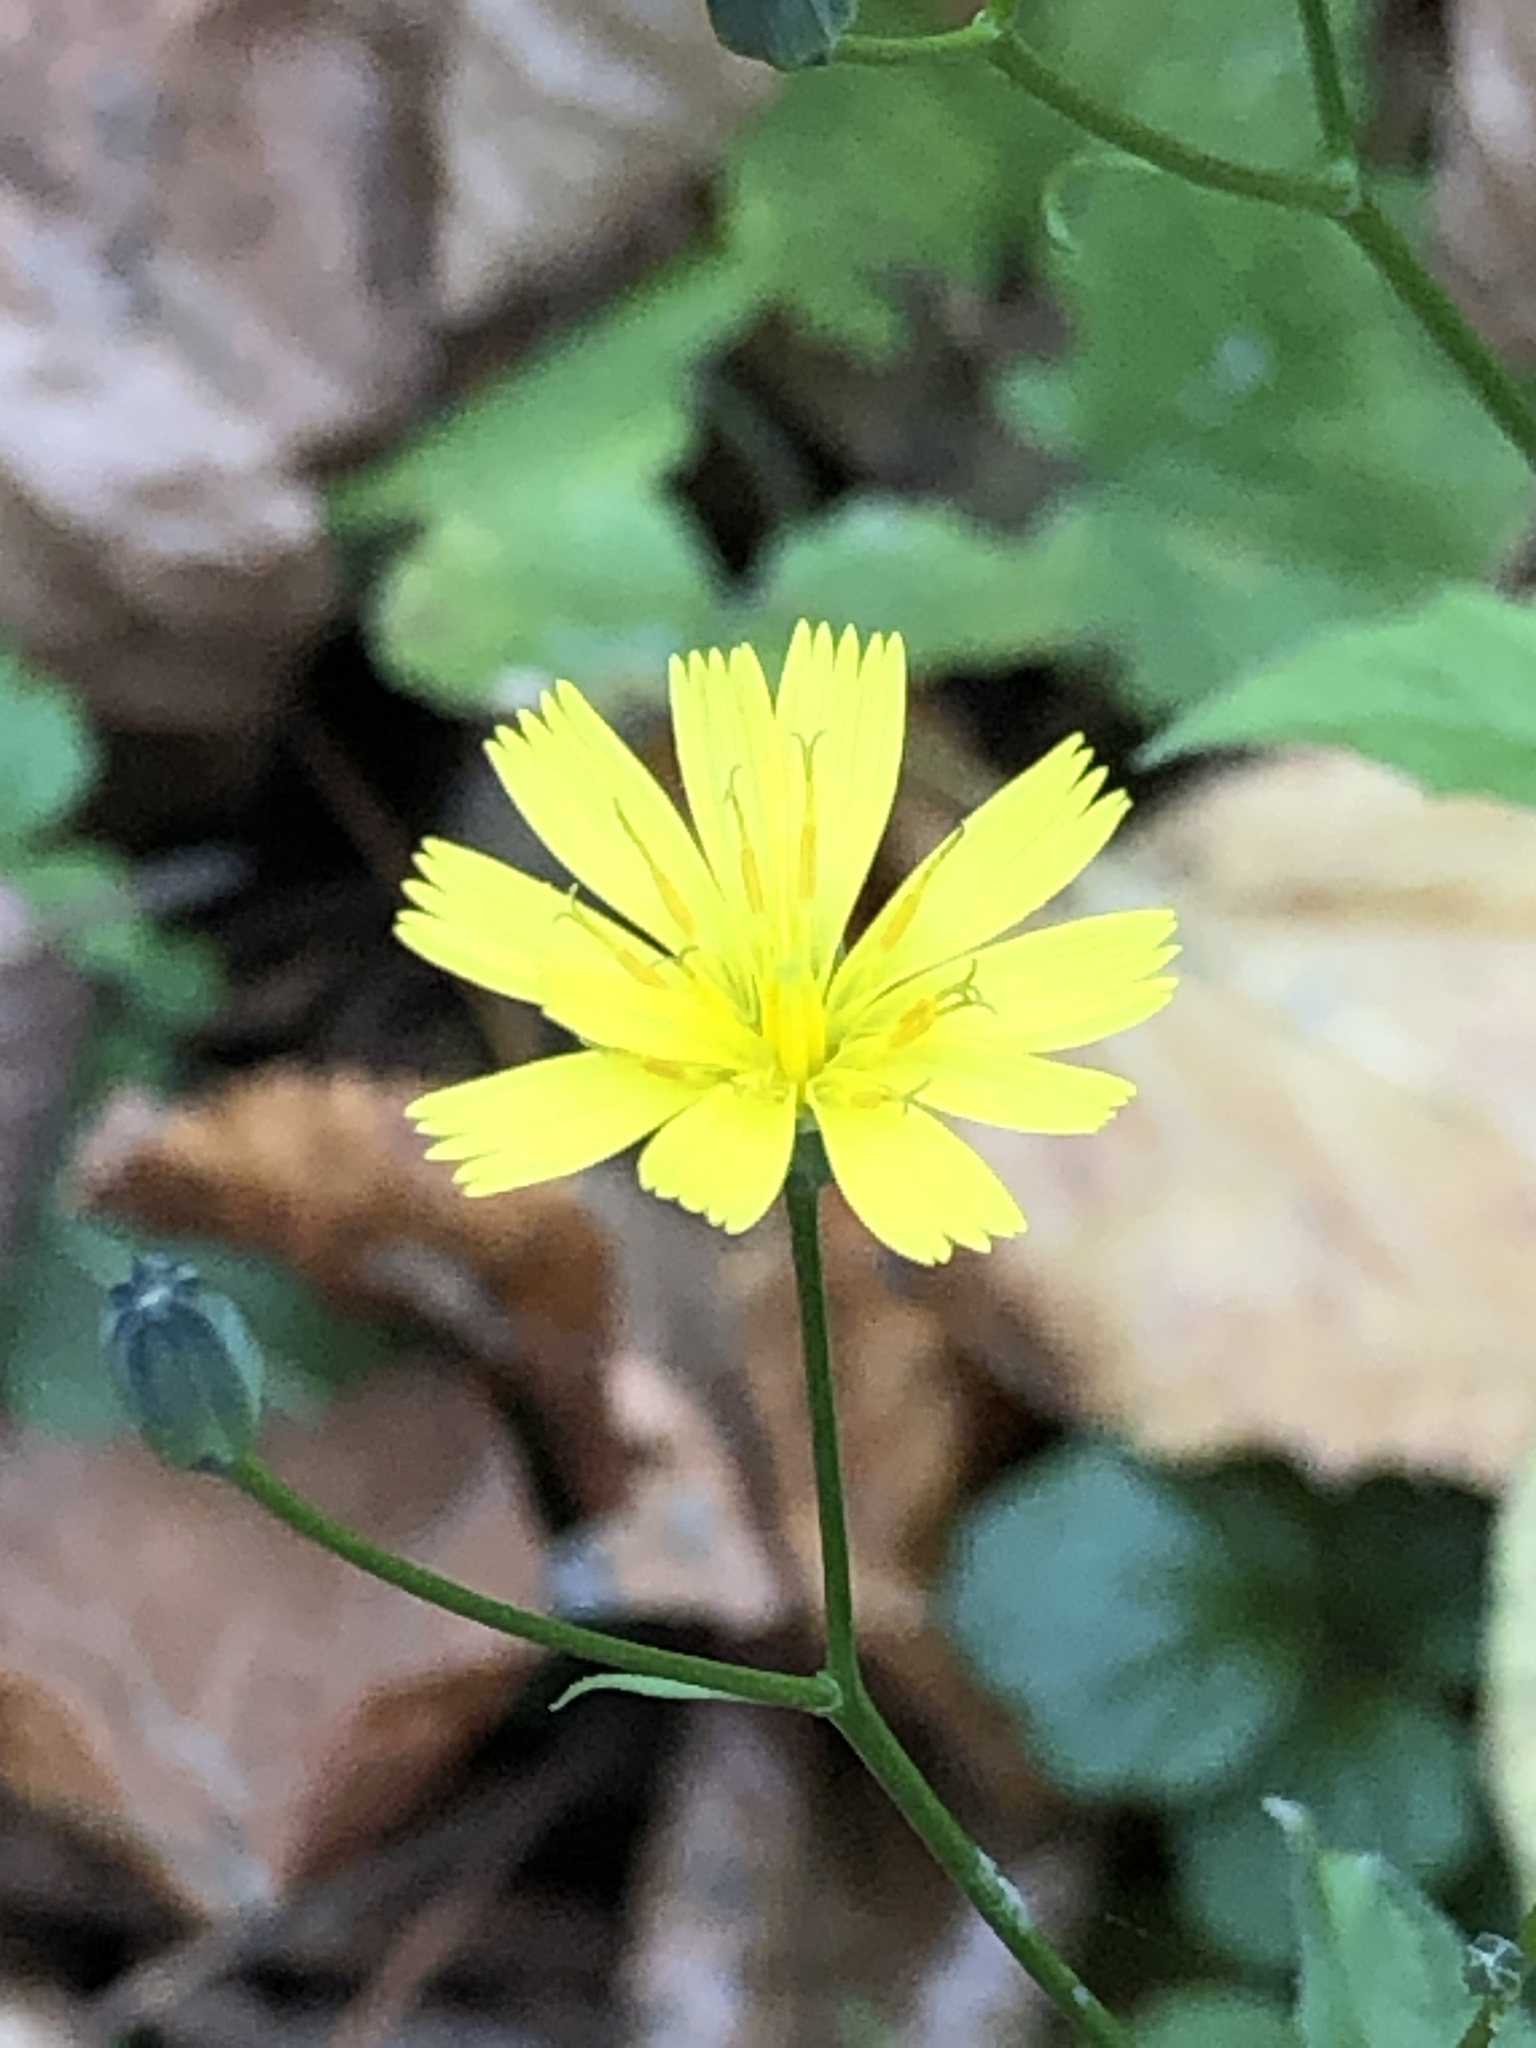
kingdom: Plantae
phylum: Tracheophyta
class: Magnoliopsida
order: Asterales
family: Asteraceae
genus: Lapsana
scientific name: Lapsana communis
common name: Nipplewort
